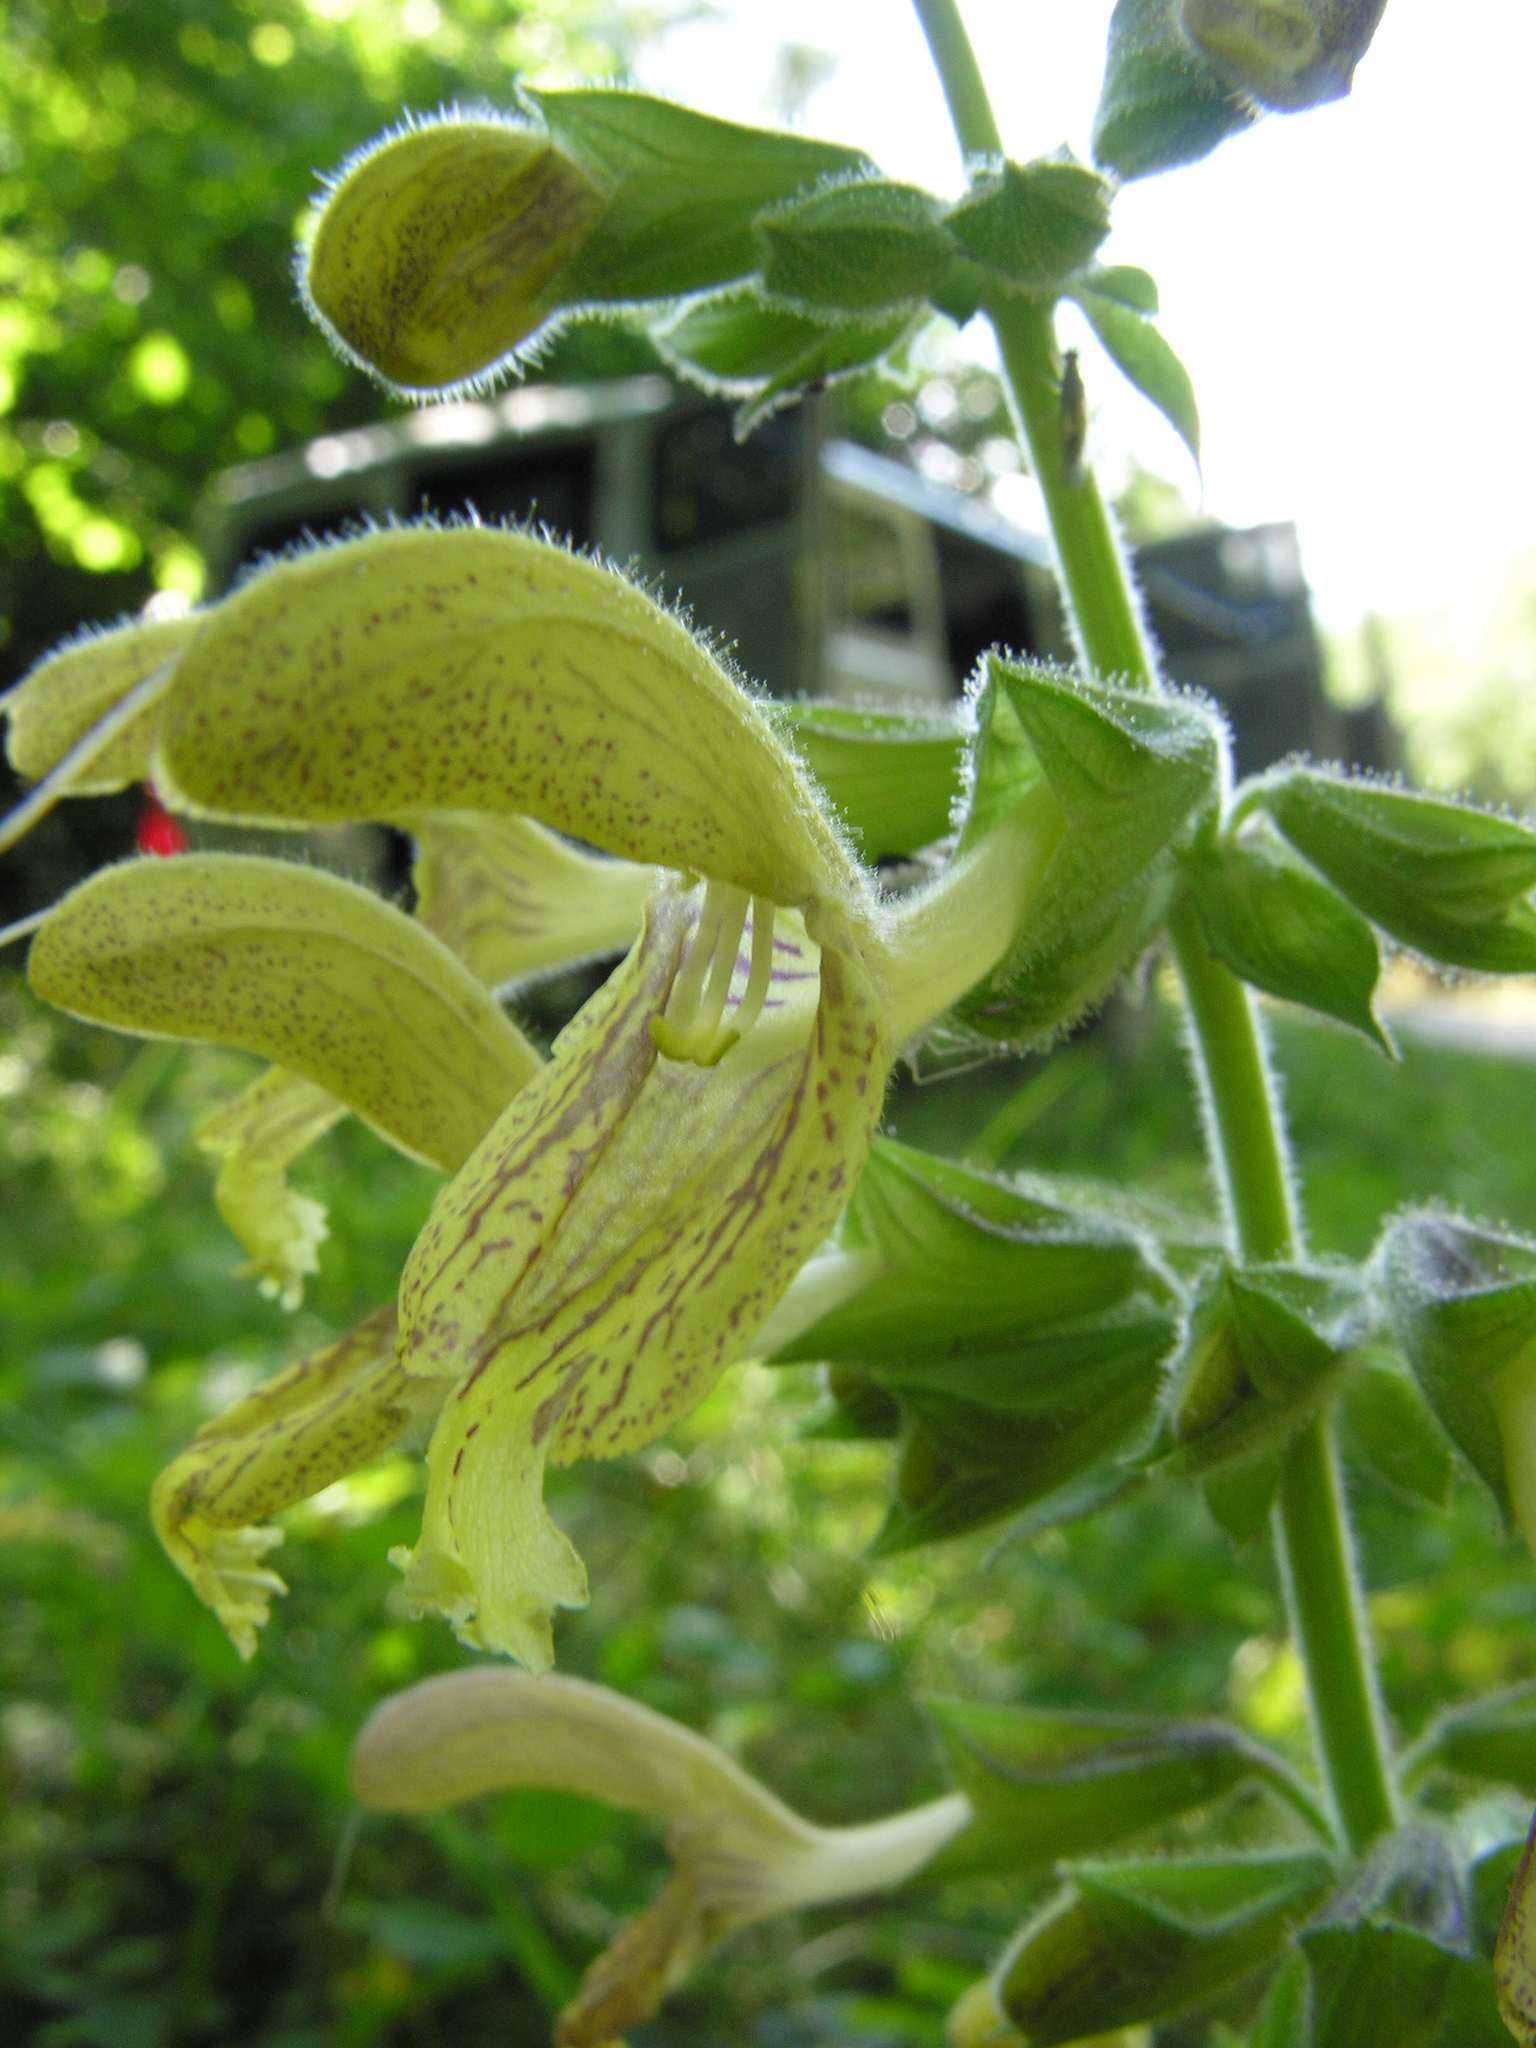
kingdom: Plantae
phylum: Tracheophyta
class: Magnoliopsida
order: Lamiales
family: Lamiaceae
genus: Salvia
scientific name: Salvia glutinosa
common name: Sticky clary
